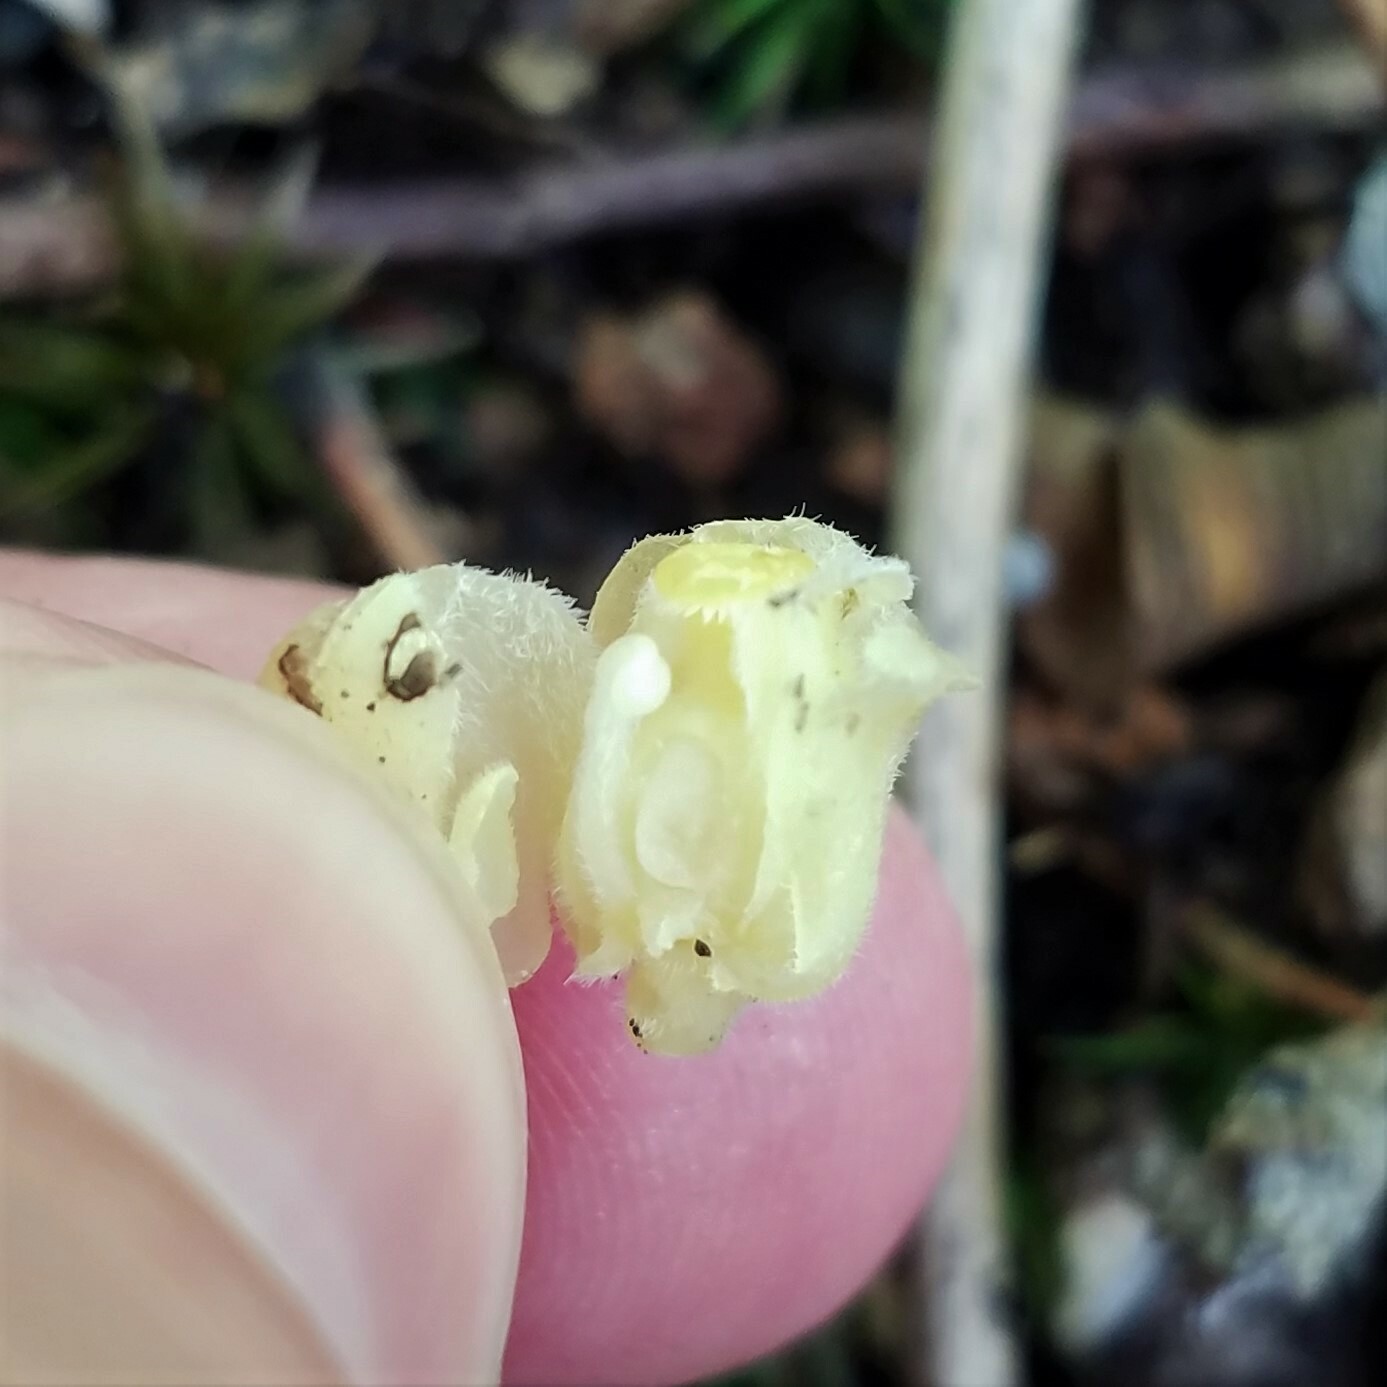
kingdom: Plantae
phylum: Tracheophyta
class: Magnoliopsida
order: Ericales
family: Ericaceae
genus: Hypopitys
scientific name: Hypopitys monotropa
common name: Yellow bird's-nest
